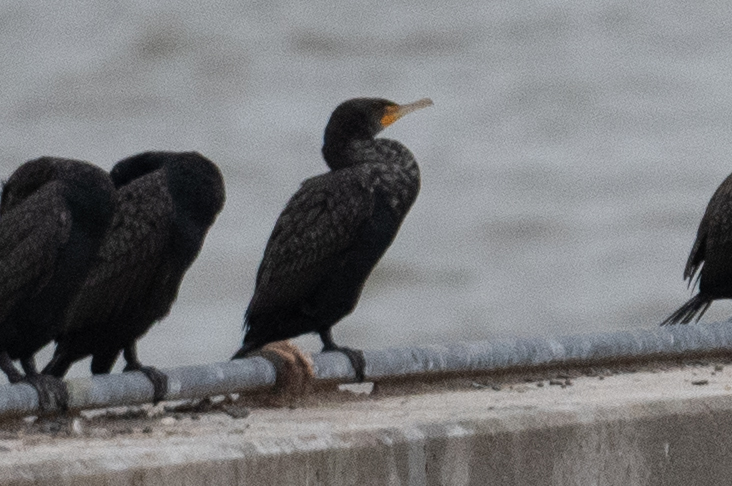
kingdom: Animalia
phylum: Chordata
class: Aves
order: Suliformes
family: Phalacrocoracidae
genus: Phalacrocorax
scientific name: Phalacrocorax auritus
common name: Double-crested cormorant
